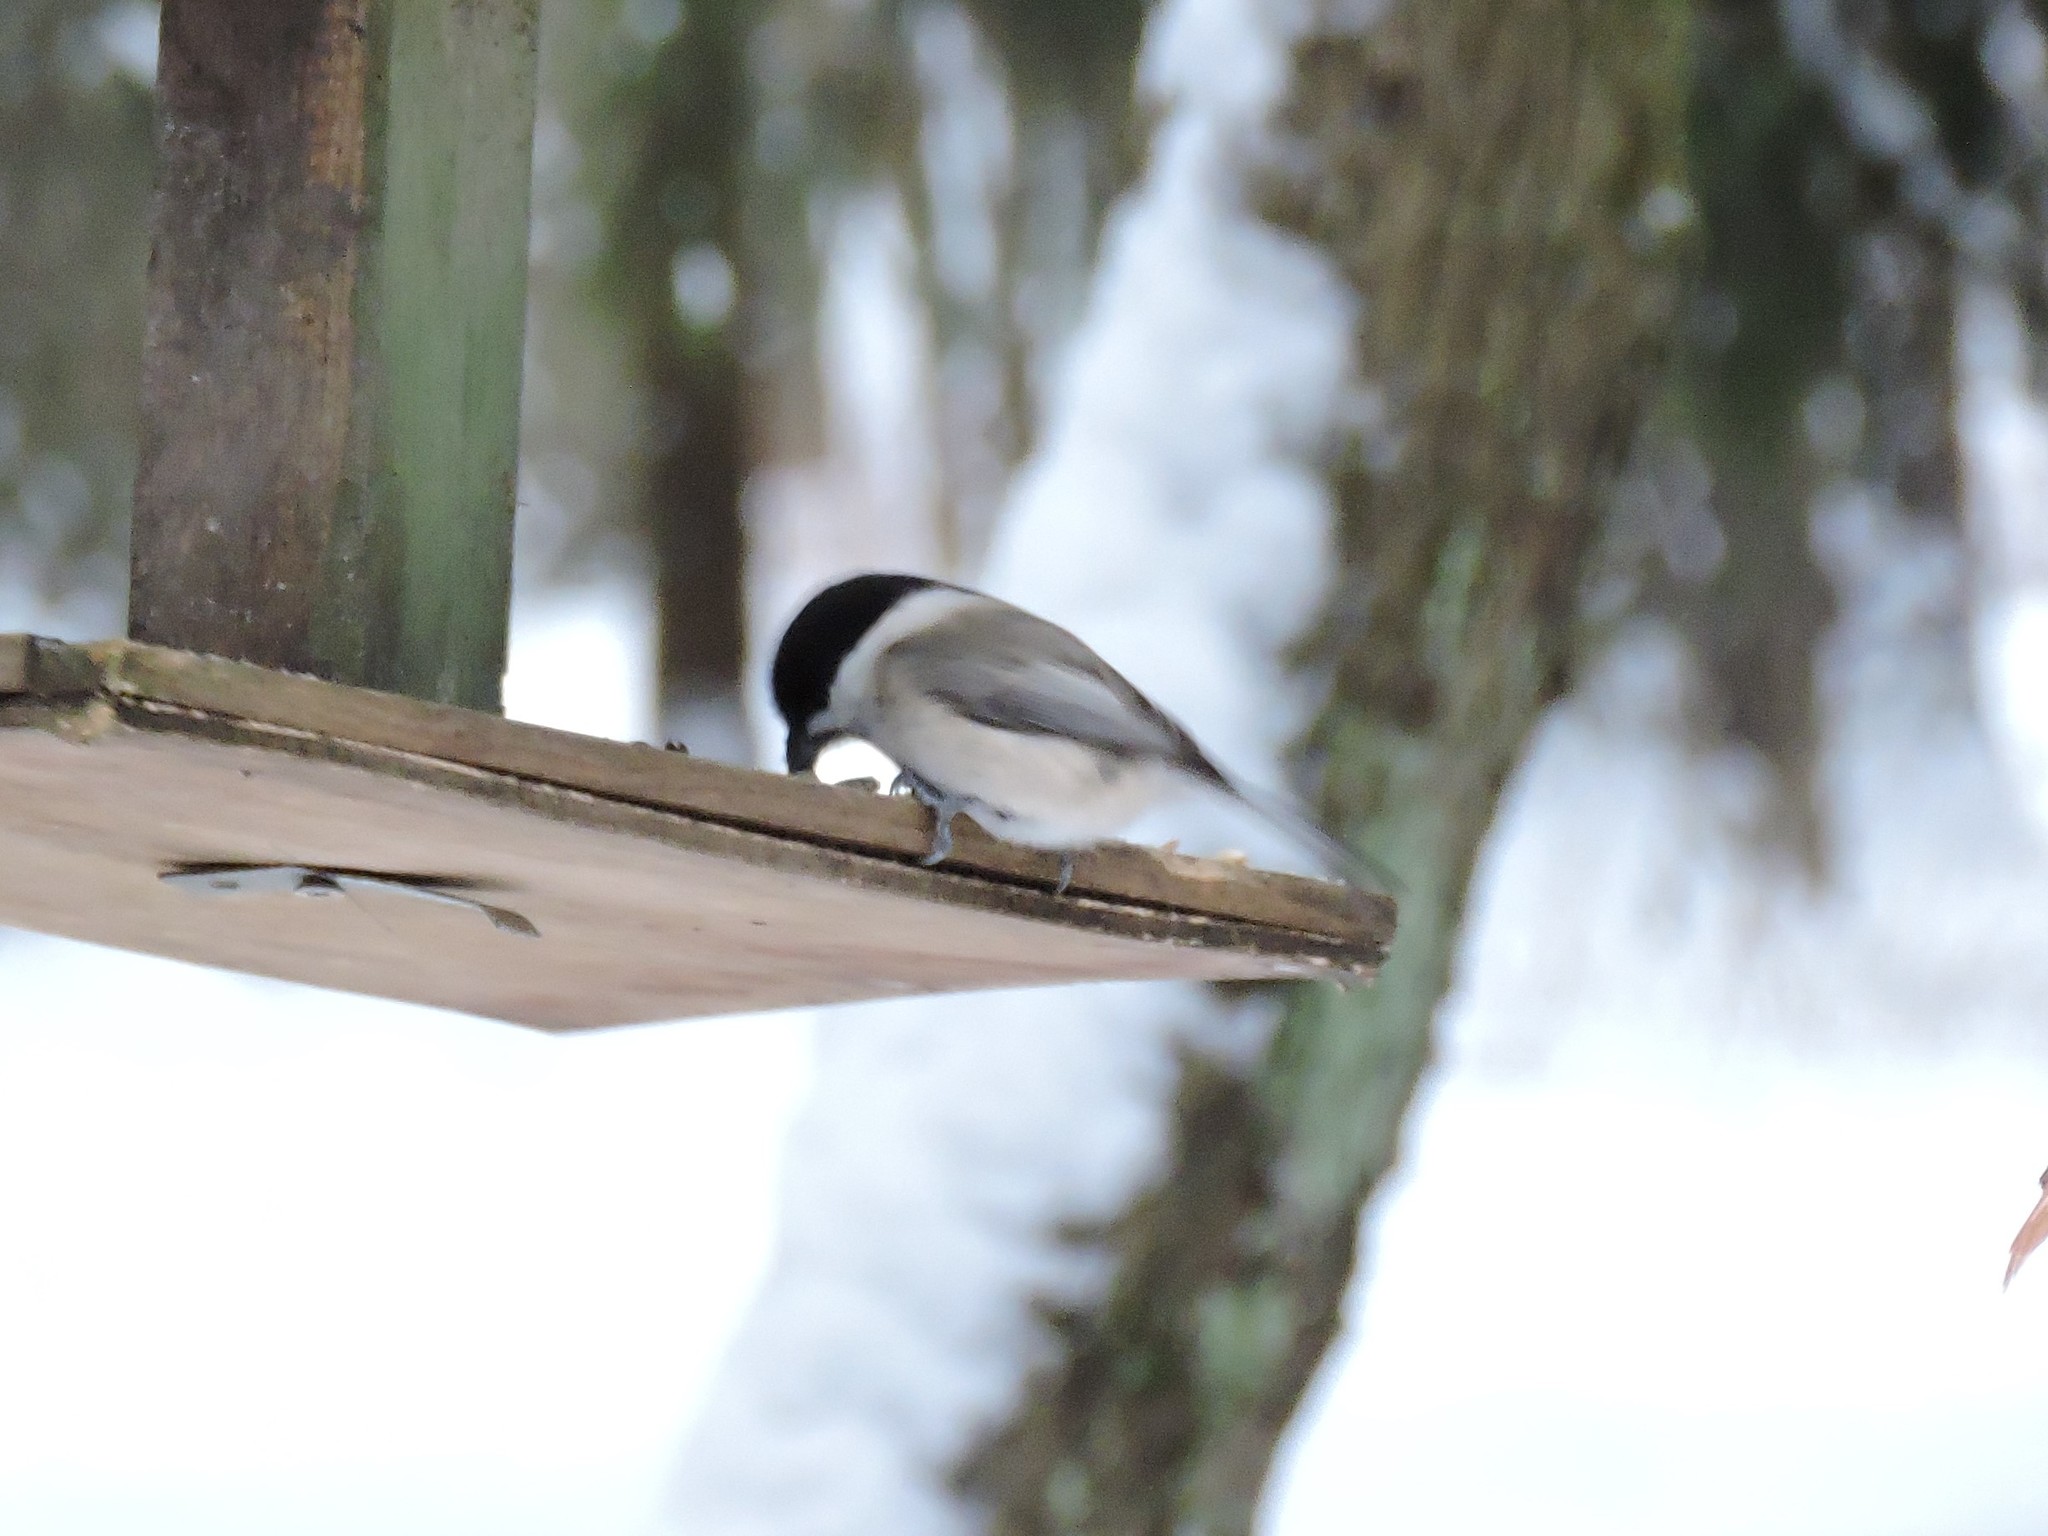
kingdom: Animalia
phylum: Chordata
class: Aves
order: Passeriformes
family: Paridae
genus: Poecile
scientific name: Poecile montanus
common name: Willow tit
